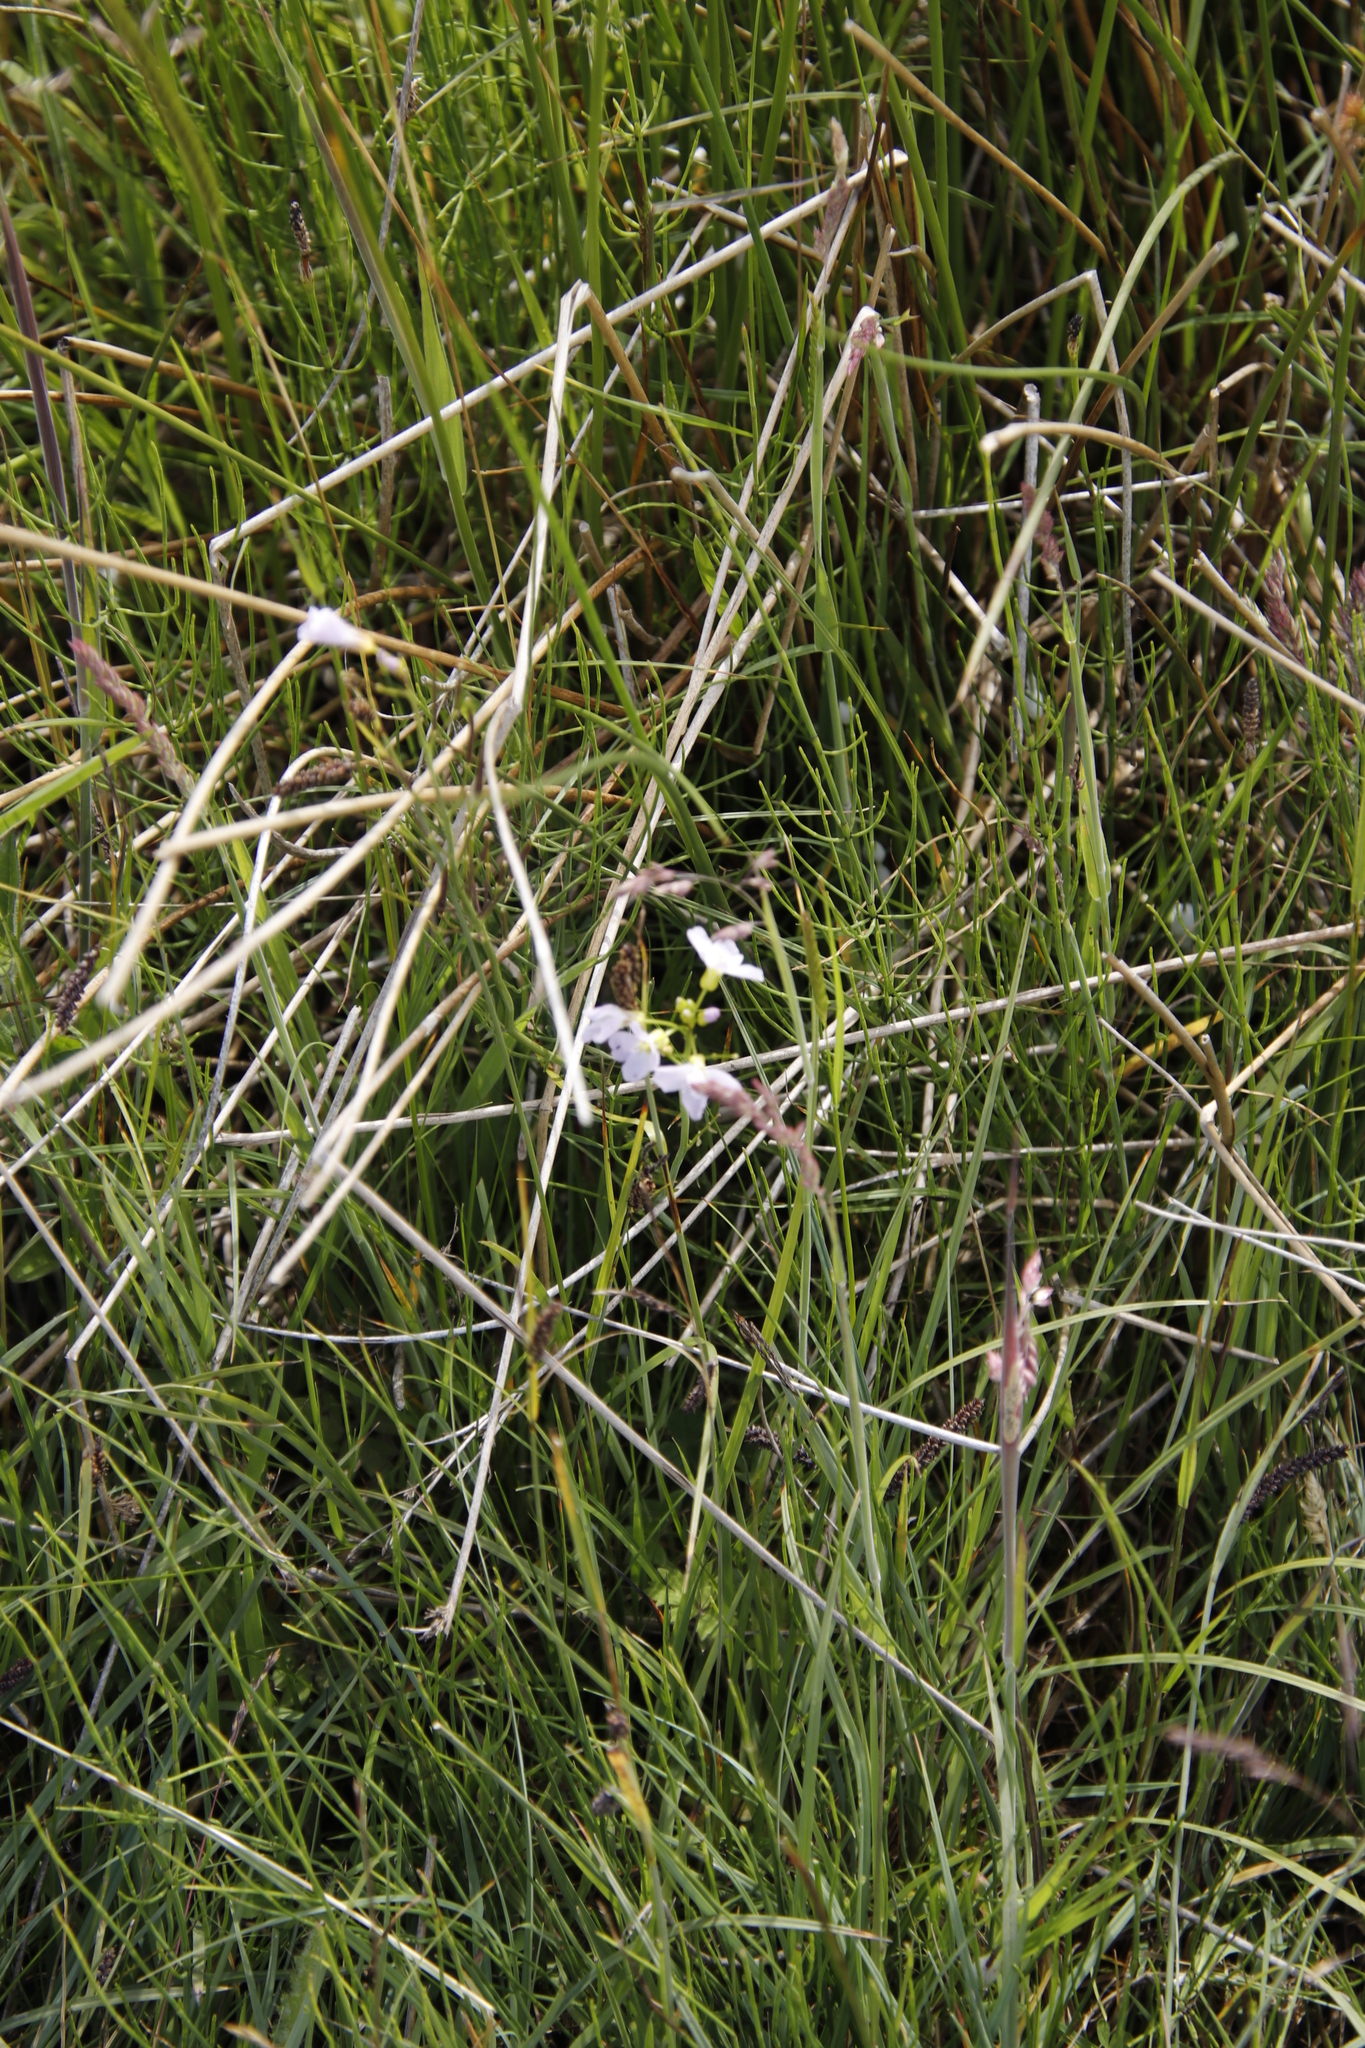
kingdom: Plantae
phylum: Tracheophyta
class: Magnoliopsida
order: Brassicales
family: Brassicaceae
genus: Cardamine
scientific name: Cardamine pratensis
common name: Cuckoo flower
